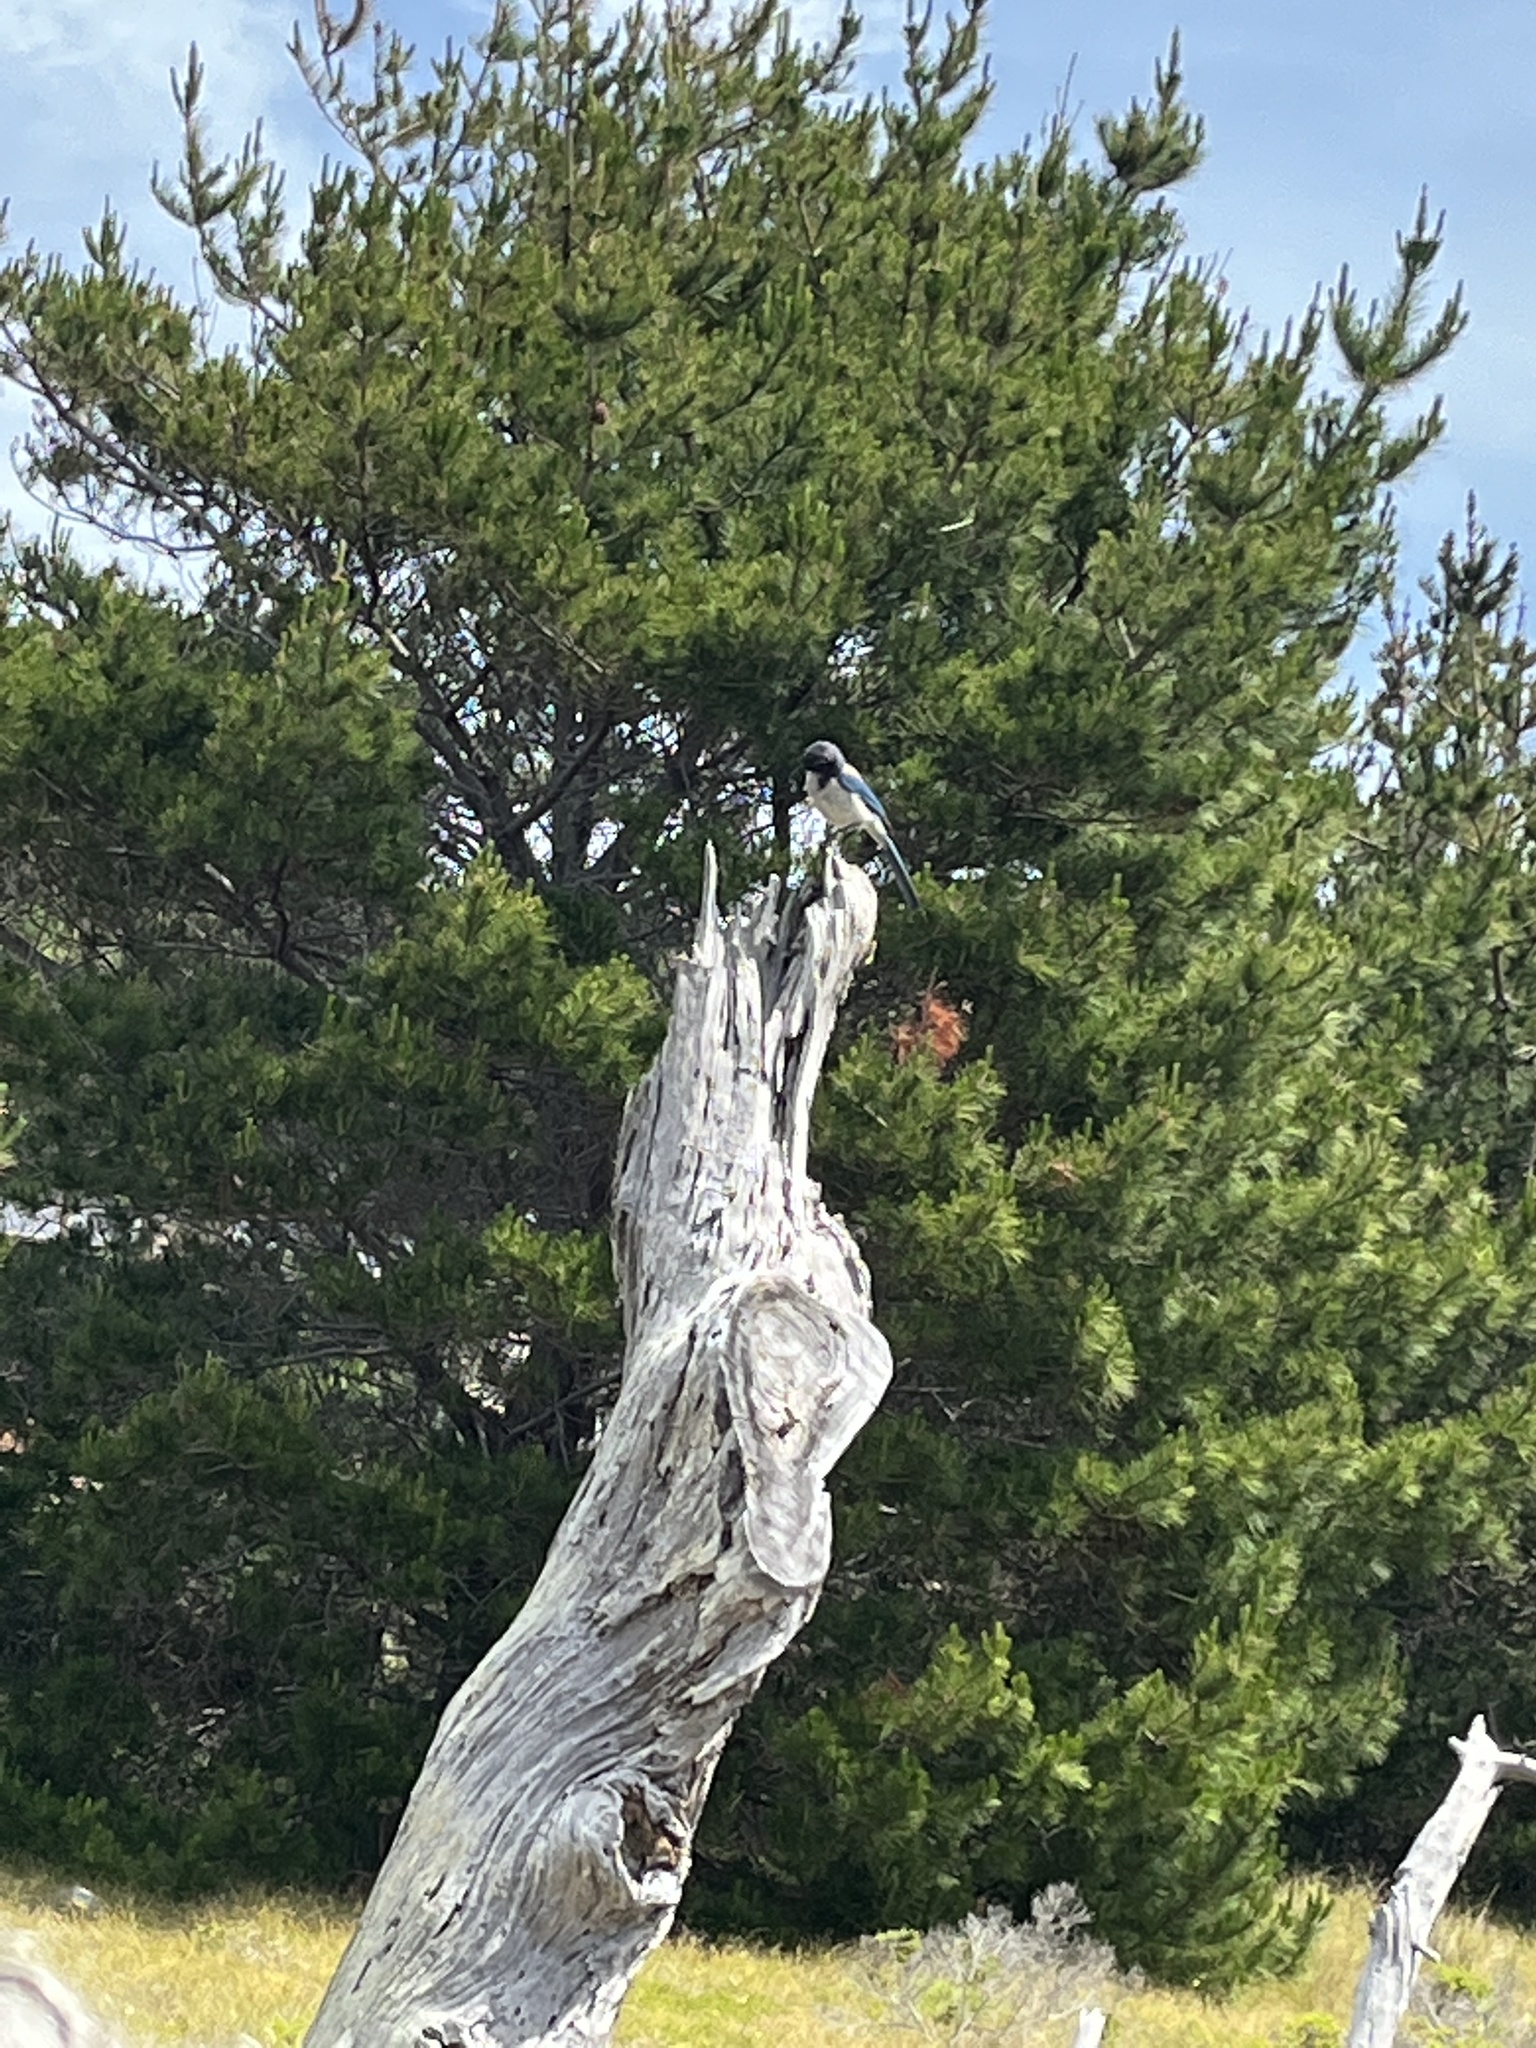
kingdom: Animalia
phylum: Chordata
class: Aves
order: Passeriformes
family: Corvidae
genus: Aphelocoma
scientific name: Aphelocoma californica
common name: California scrub-jay
